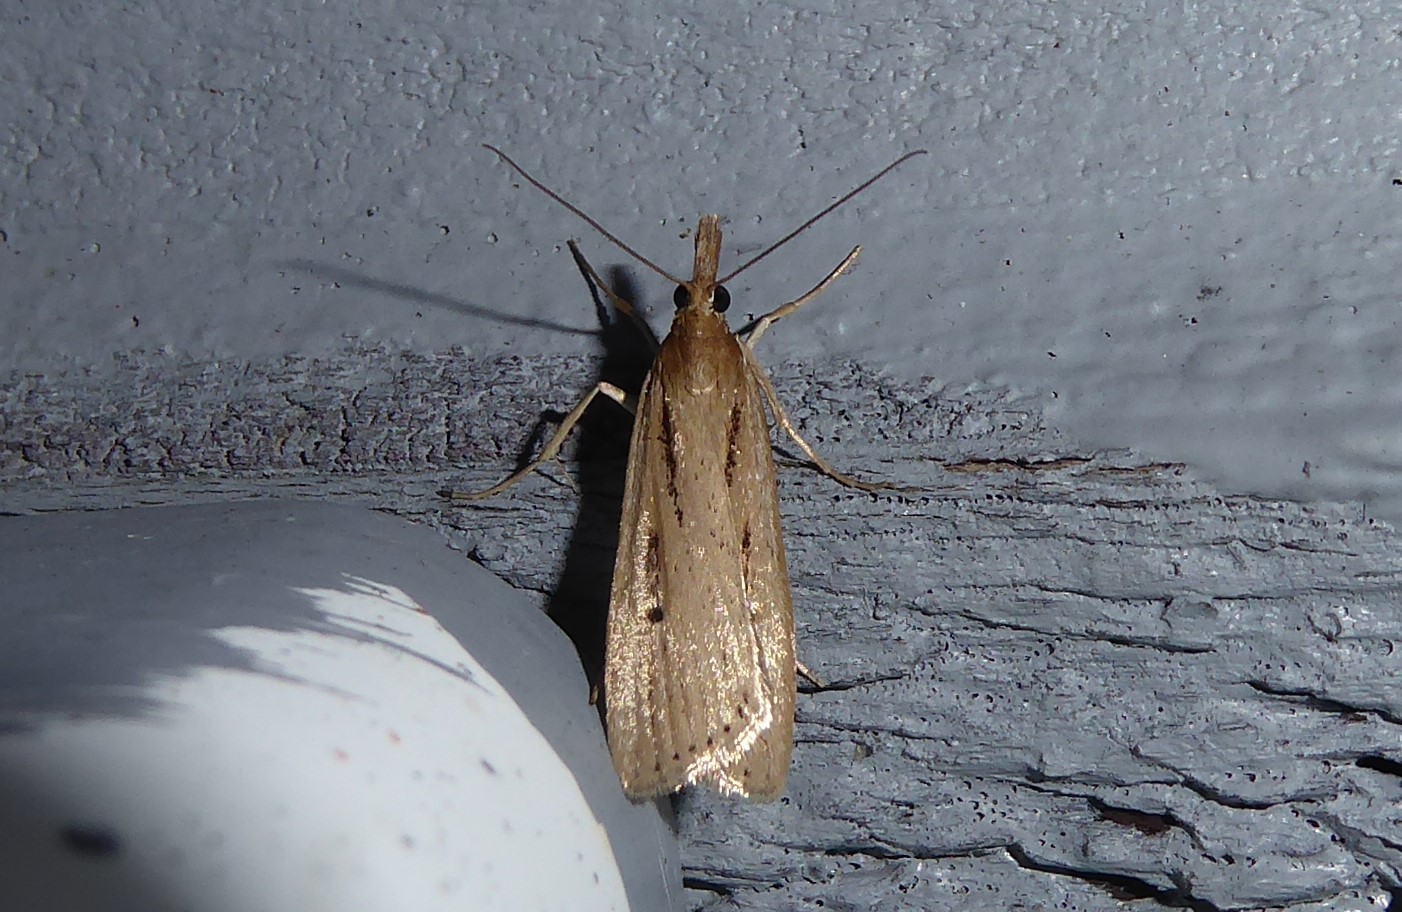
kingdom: Animalia
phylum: Arthropoda
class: Insecta
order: Lepidoptera
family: Crambidae
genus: Eudonia
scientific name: Eudonia sabulosella
